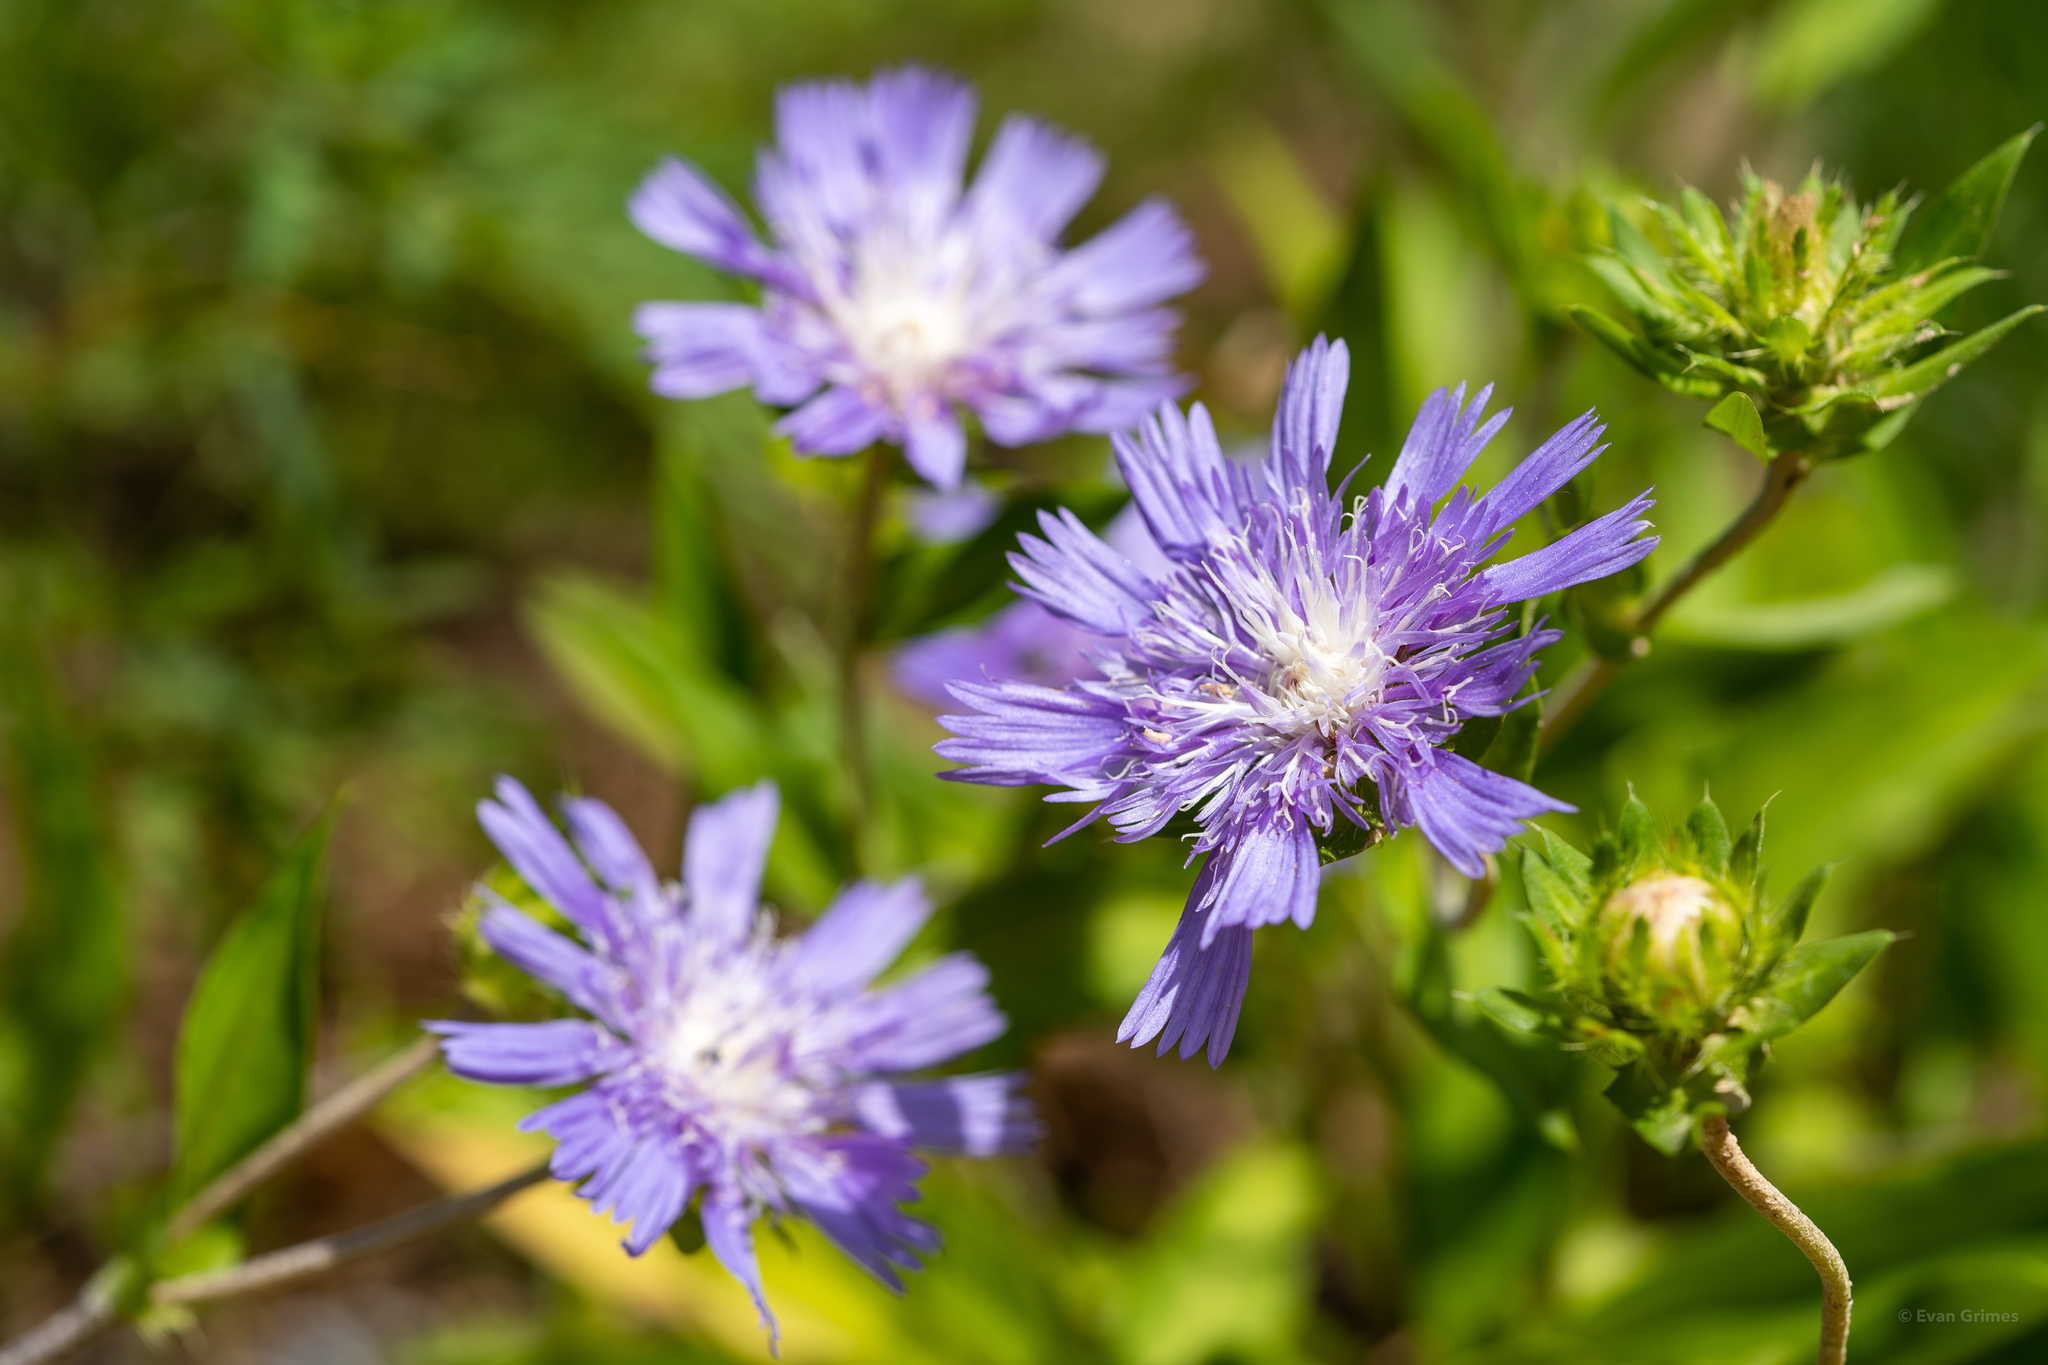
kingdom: Plantae
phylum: Tracheophyta
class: Magnoliopsida
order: Asterales
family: Asteraceae
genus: Stokesia
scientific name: Stokesia laevis
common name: Stokes'-aster
